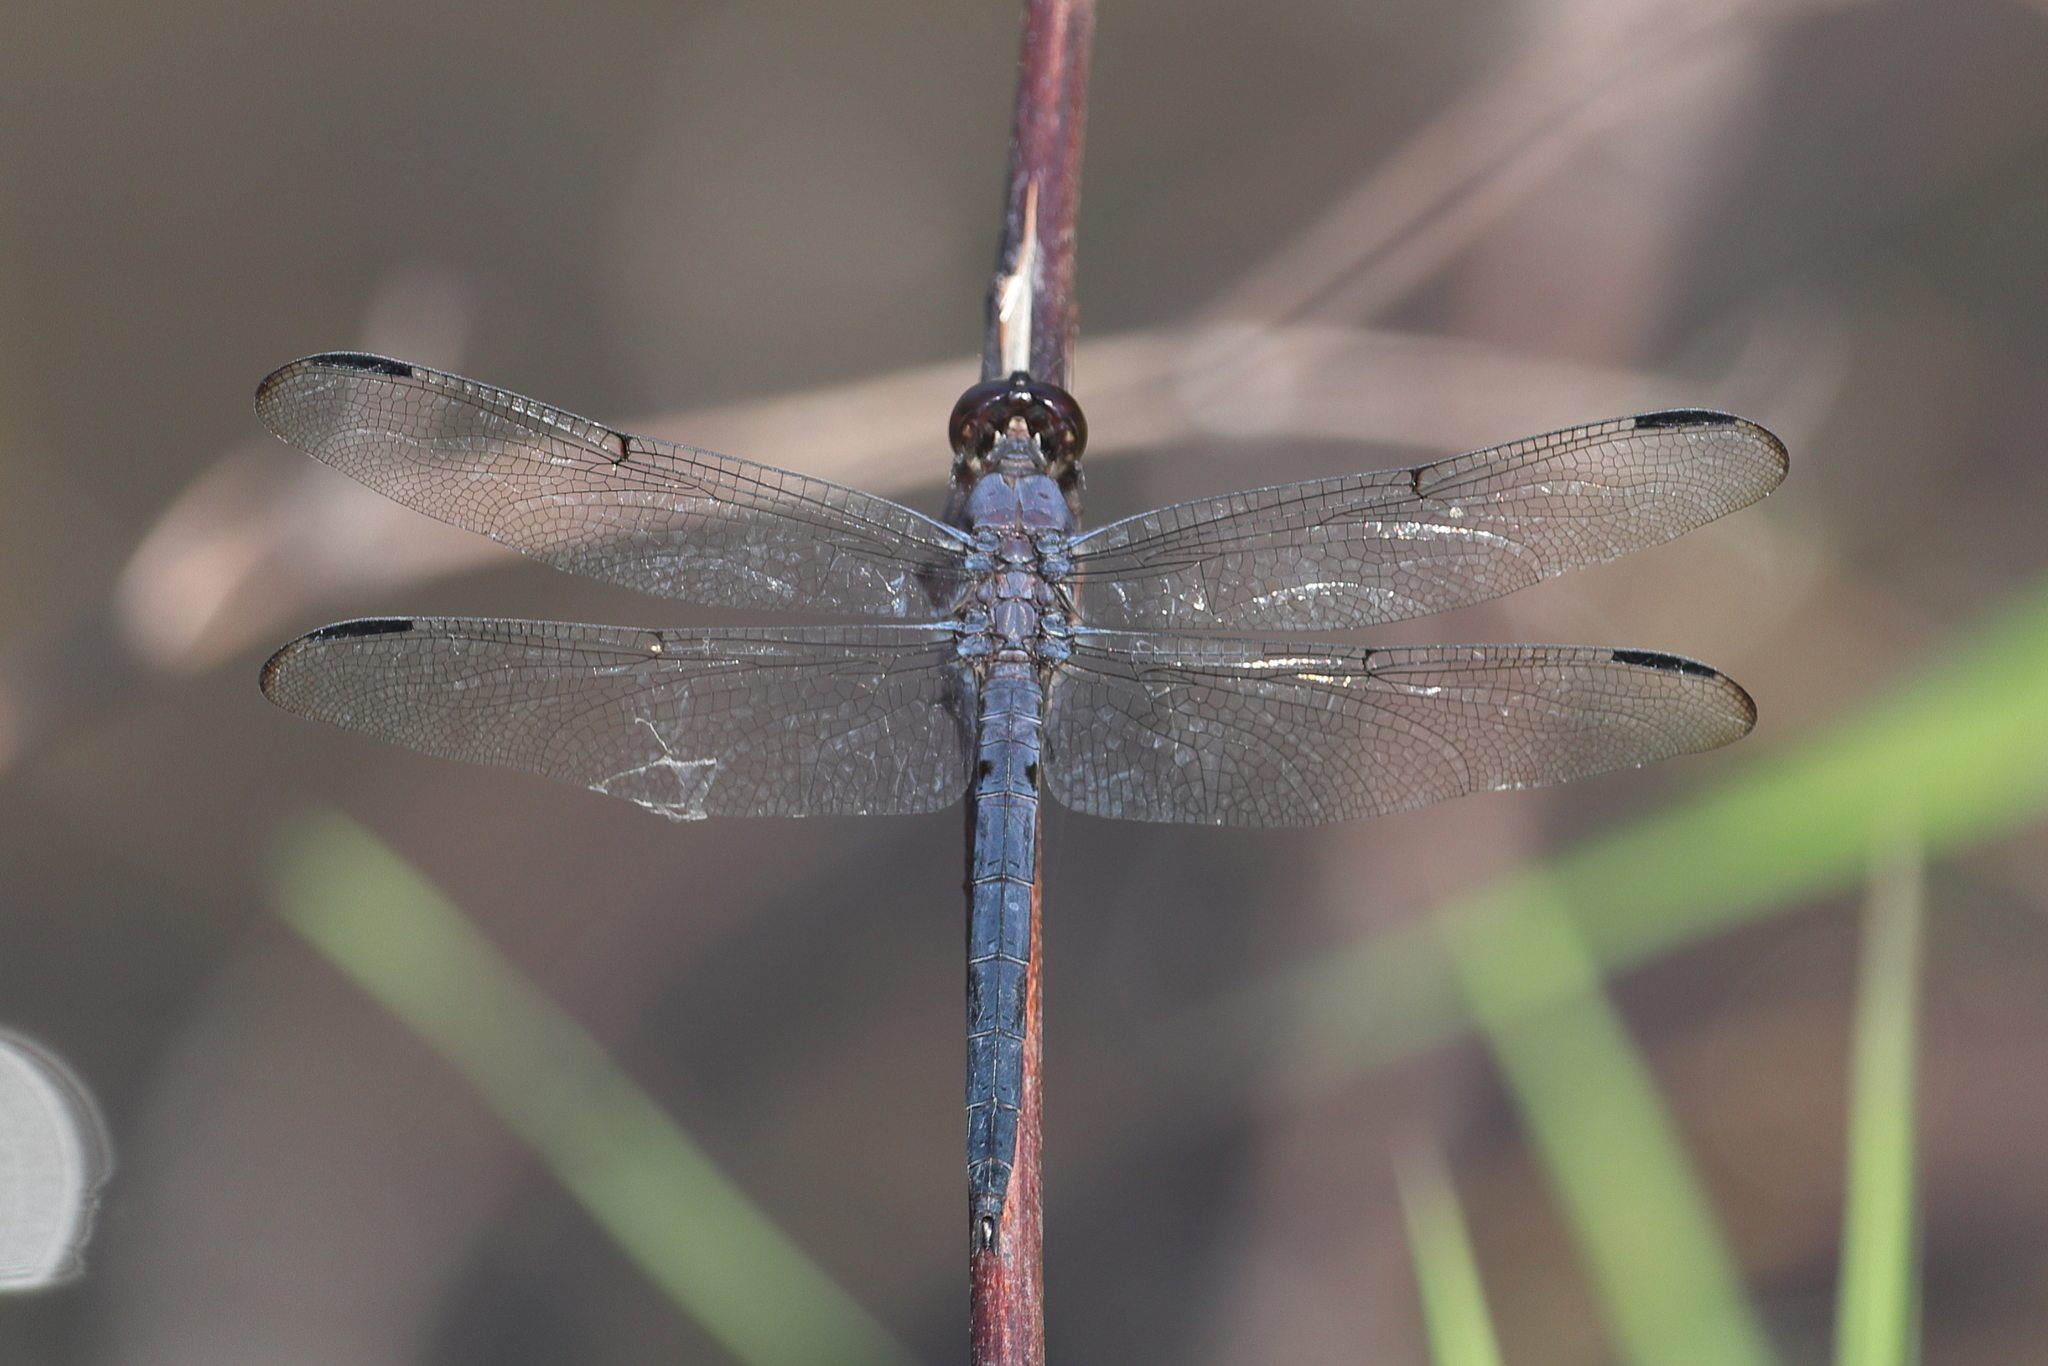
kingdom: Animalia
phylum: Arthropoda
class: Insecta
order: Odonata
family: Libellulidae
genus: Libellula
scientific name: Libellula incesta
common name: Slaty skimmer
